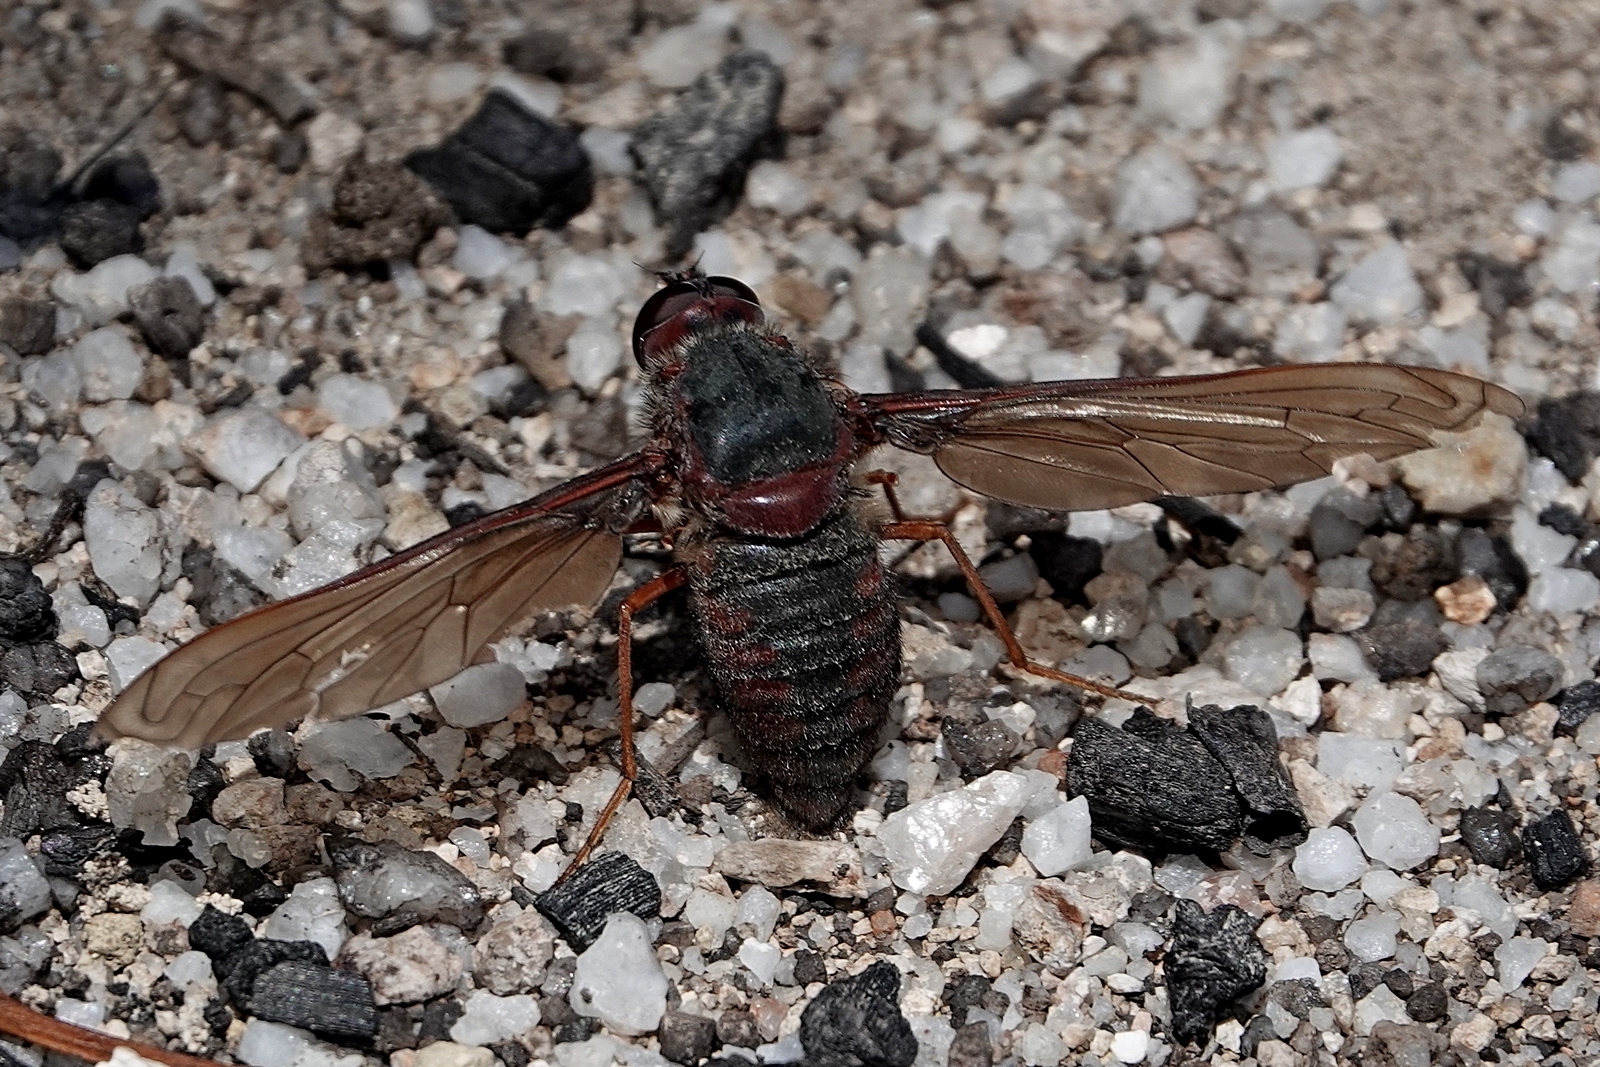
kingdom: Animalia
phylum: Arthropoda
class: Insecta
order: Diptera
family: Bombyliidae
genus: Comptosia
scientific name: Comptosia insignis
